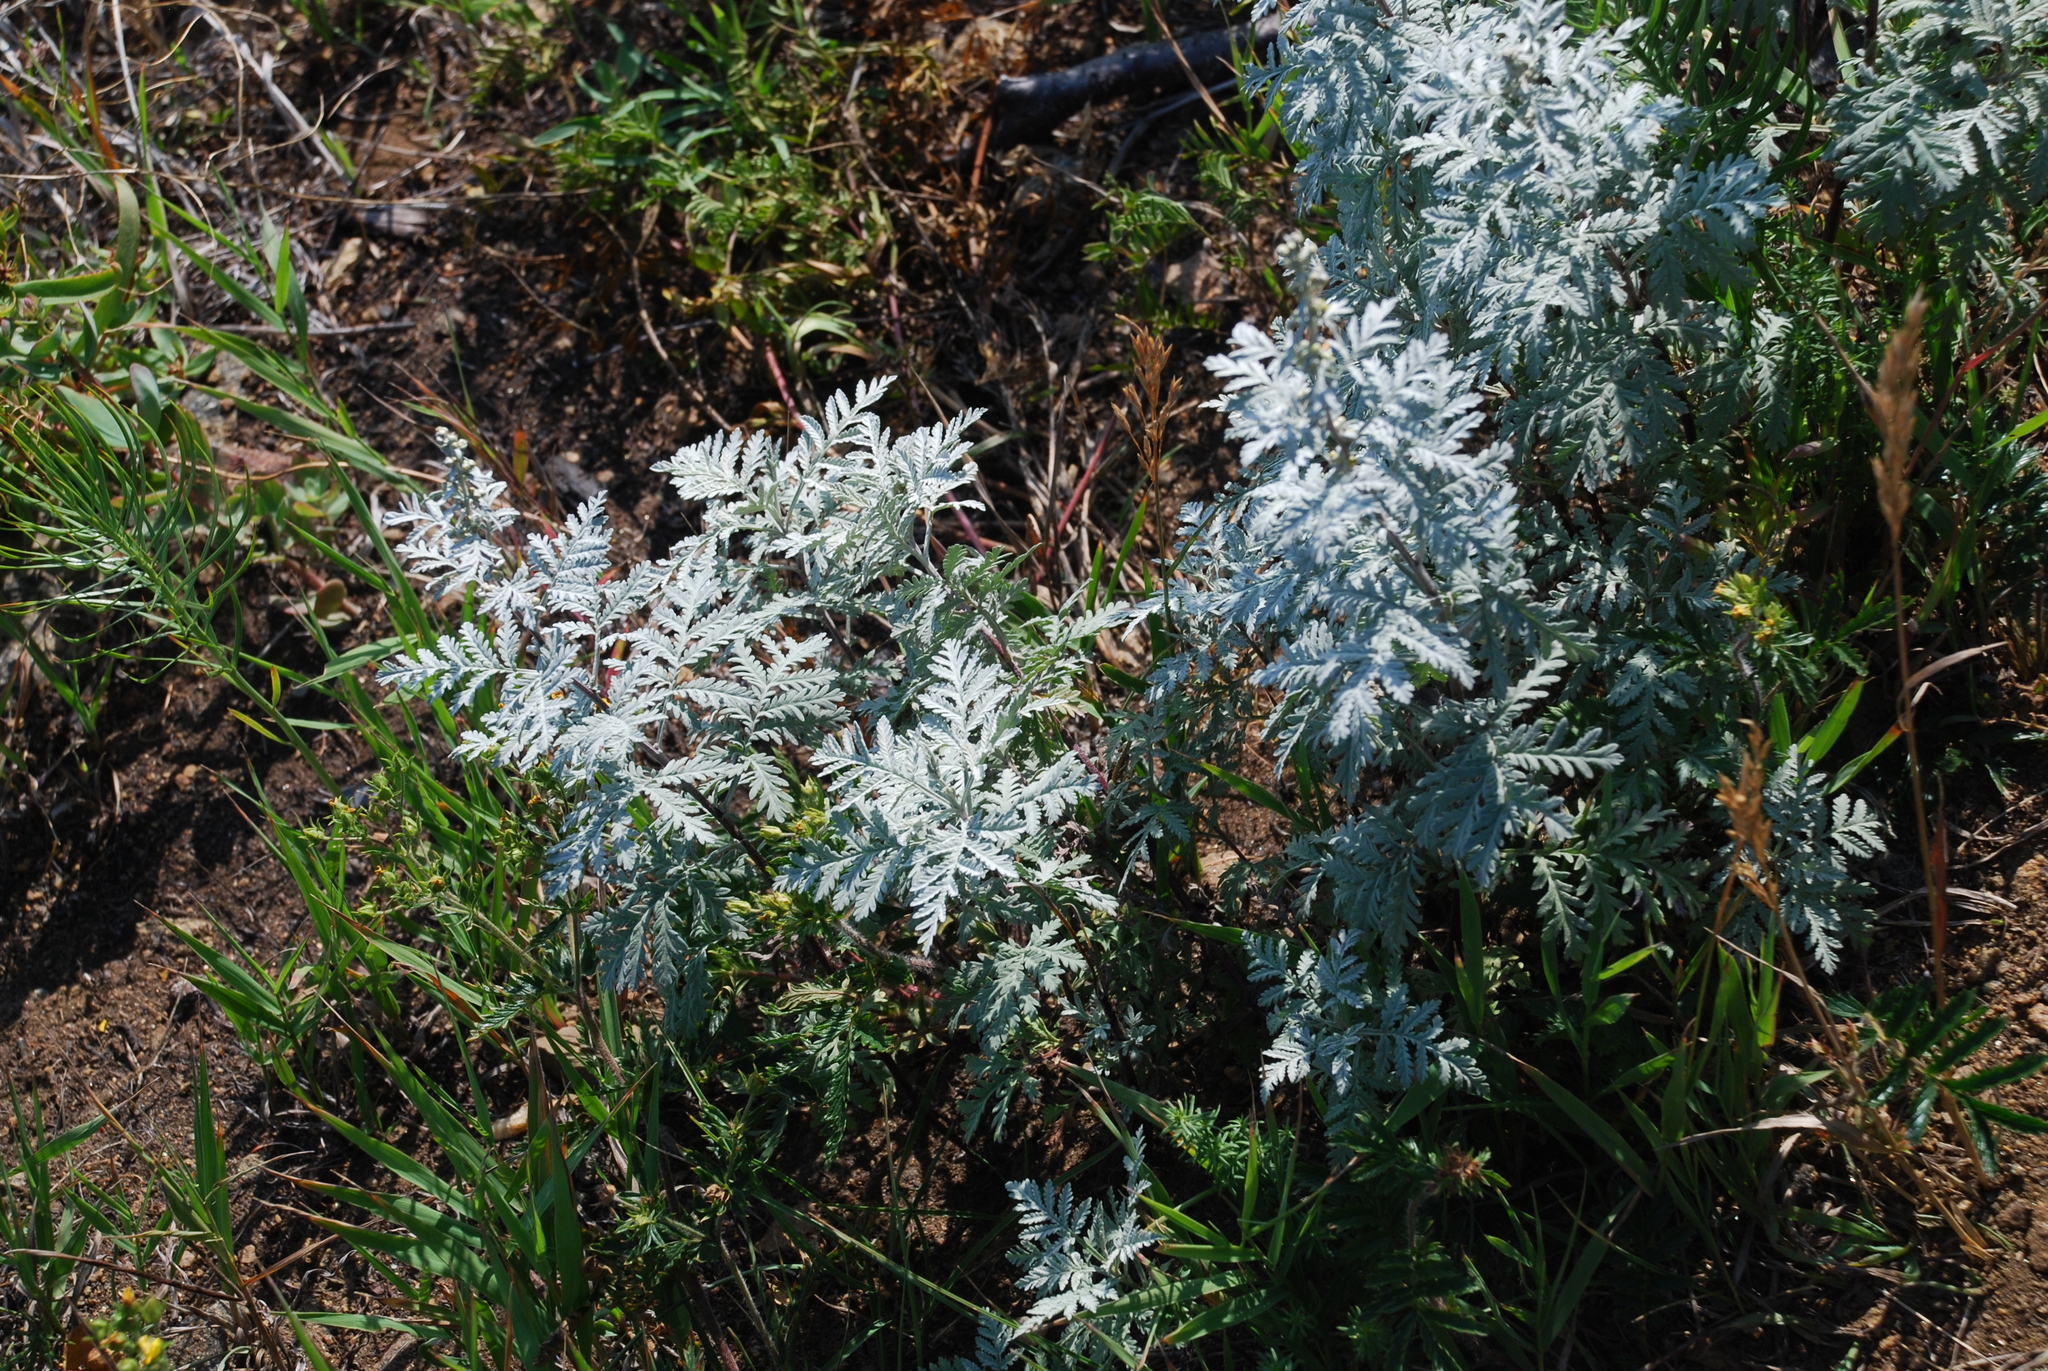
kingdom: Plantae
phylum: Tracheophyta
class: Magnoliopsida
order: Asterales
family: Asteraceae
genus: Artemisia
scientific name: Artemisia gmelinii
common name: Gmelin's wormwood
